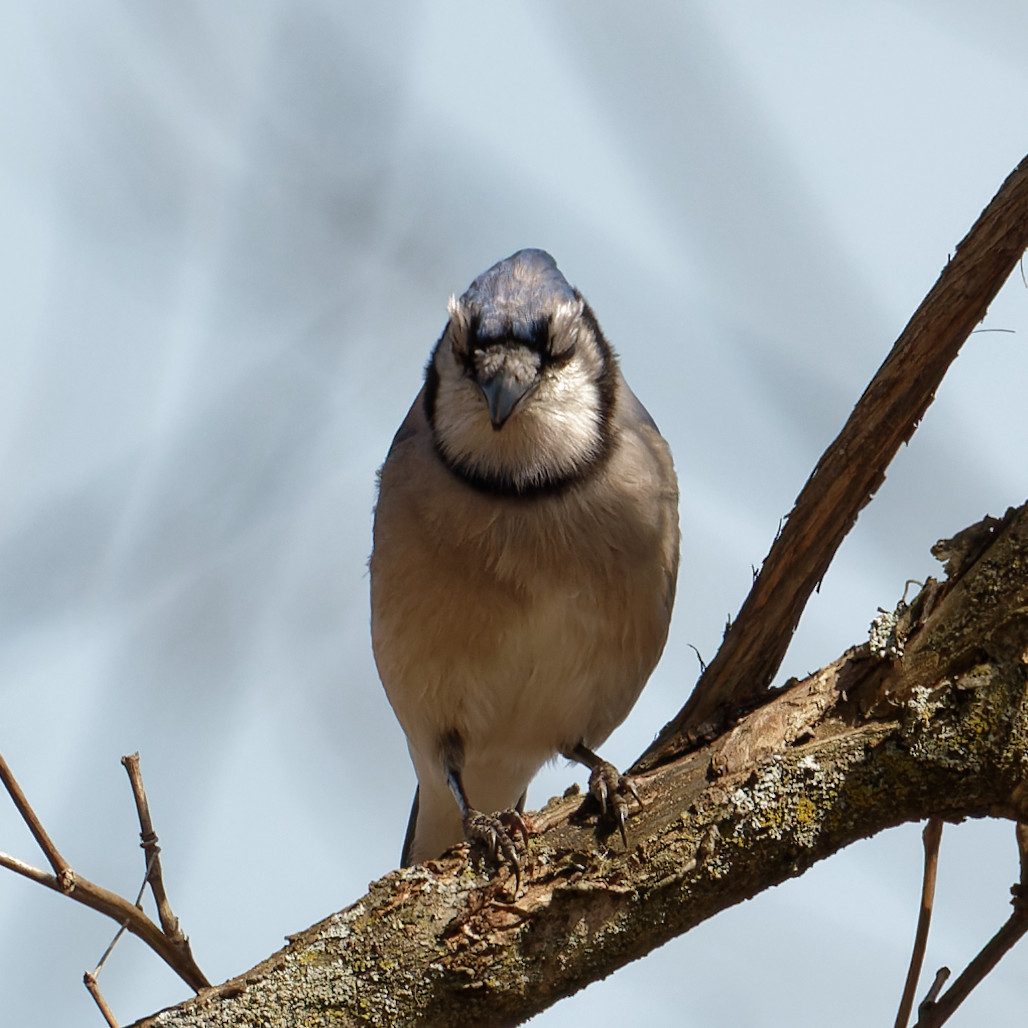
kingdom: Animalia
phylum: Chordata
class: Aves
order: Passeriformes
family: Corvidae
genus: Cyanocitta
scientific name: Cyanocitta cristata
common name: Blue jay
